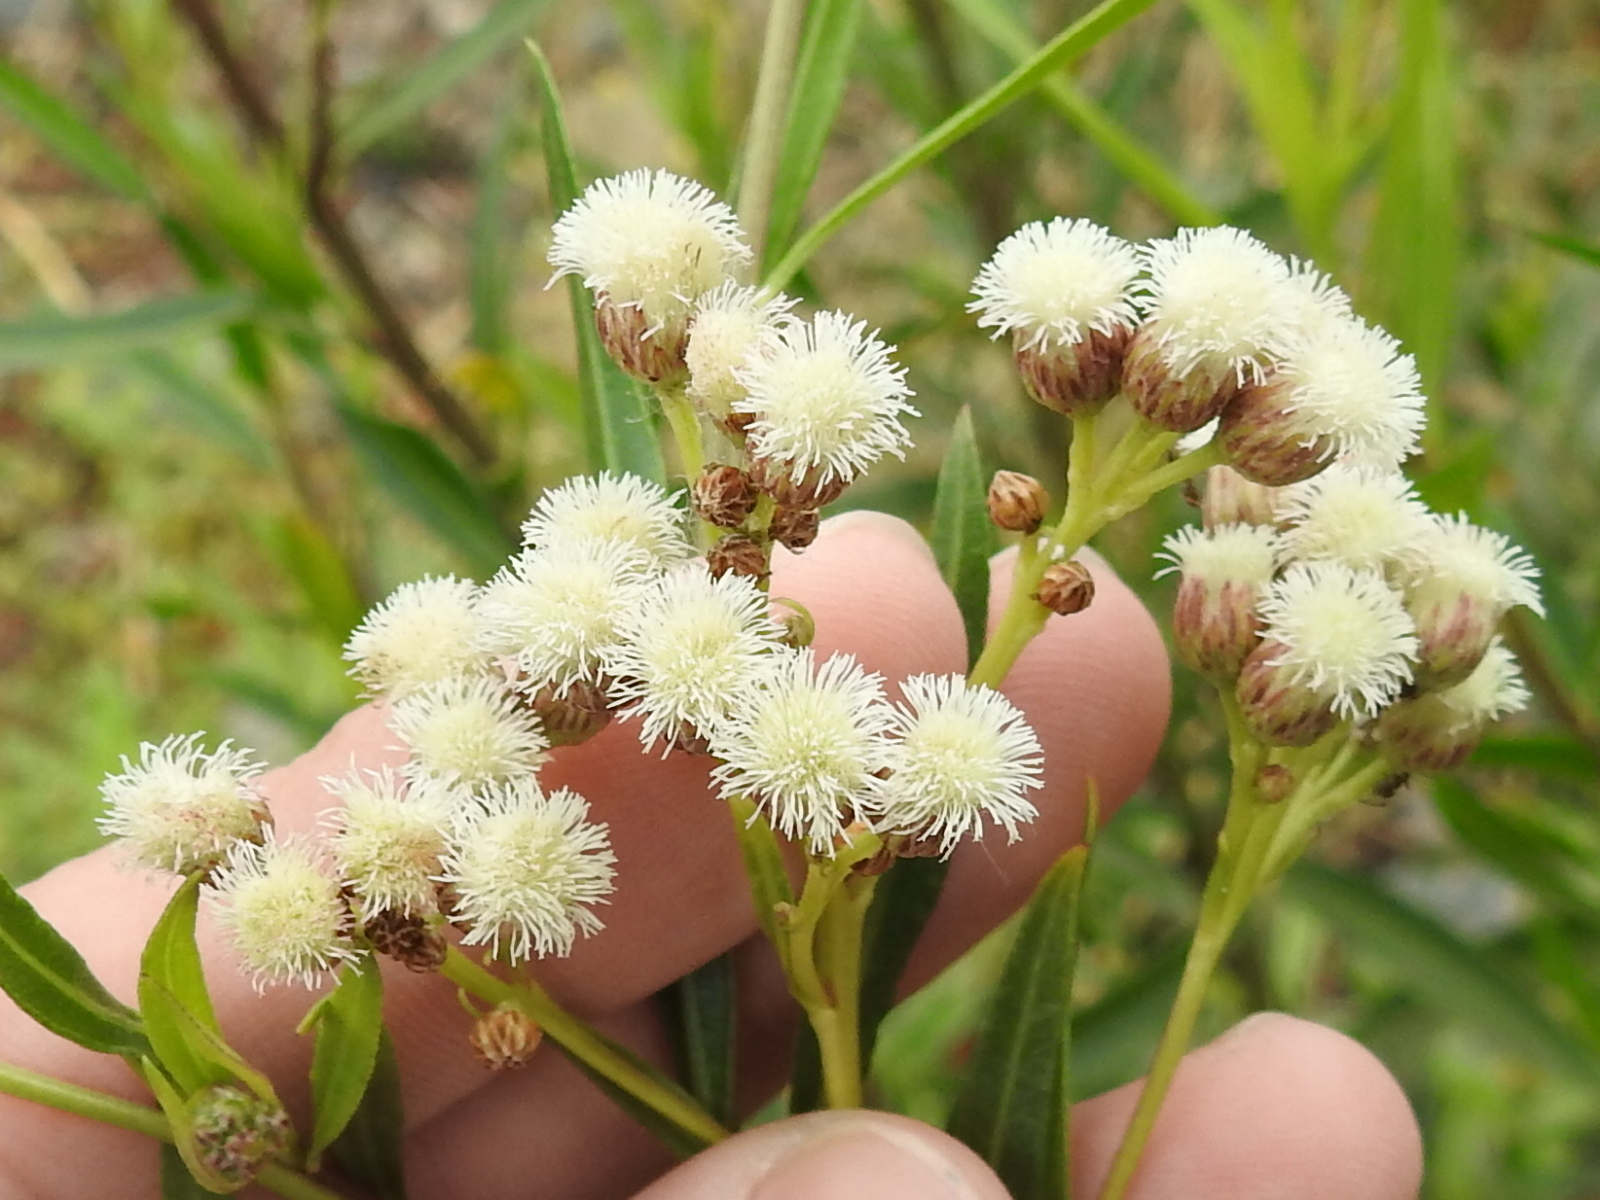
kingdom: Plantae
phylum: Tracheophyta
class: Magnoliopsida
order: Asterales
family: Asteraceae
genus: Baccharis
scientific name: Baccharis salicifolia
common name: Sticky baccharis
